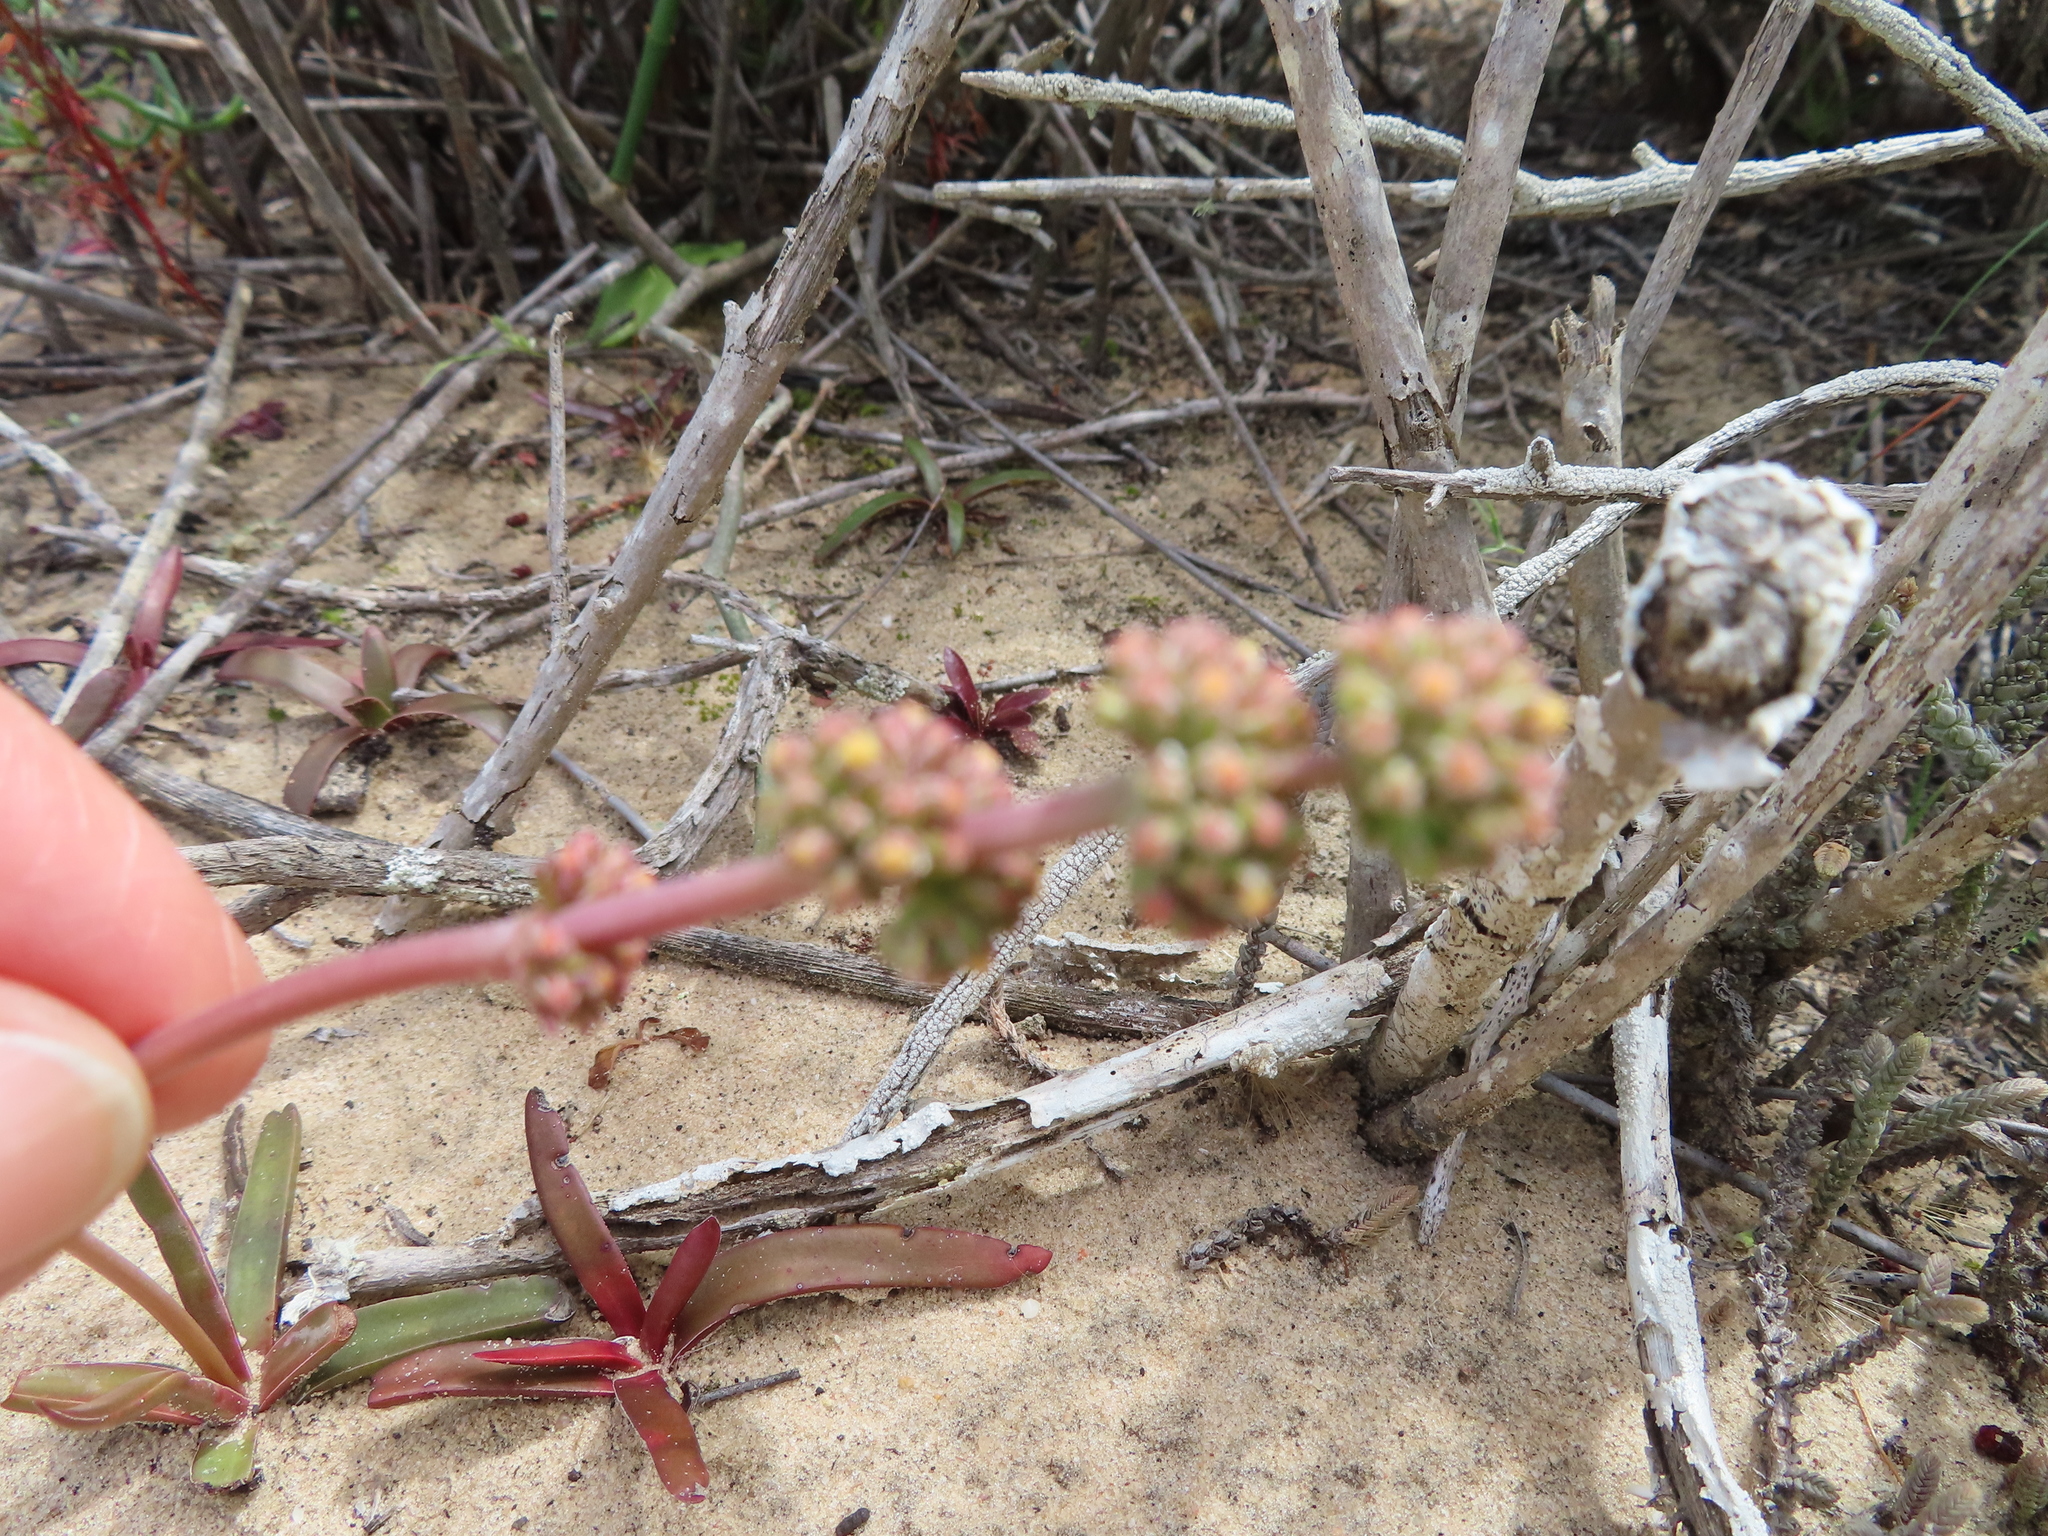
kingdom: Plantae
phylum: Tracheophyta
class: Magnoliopsida
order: Saxifragales
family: Crassulaceae
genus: Crassula
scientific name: Crassula nudicaulis
